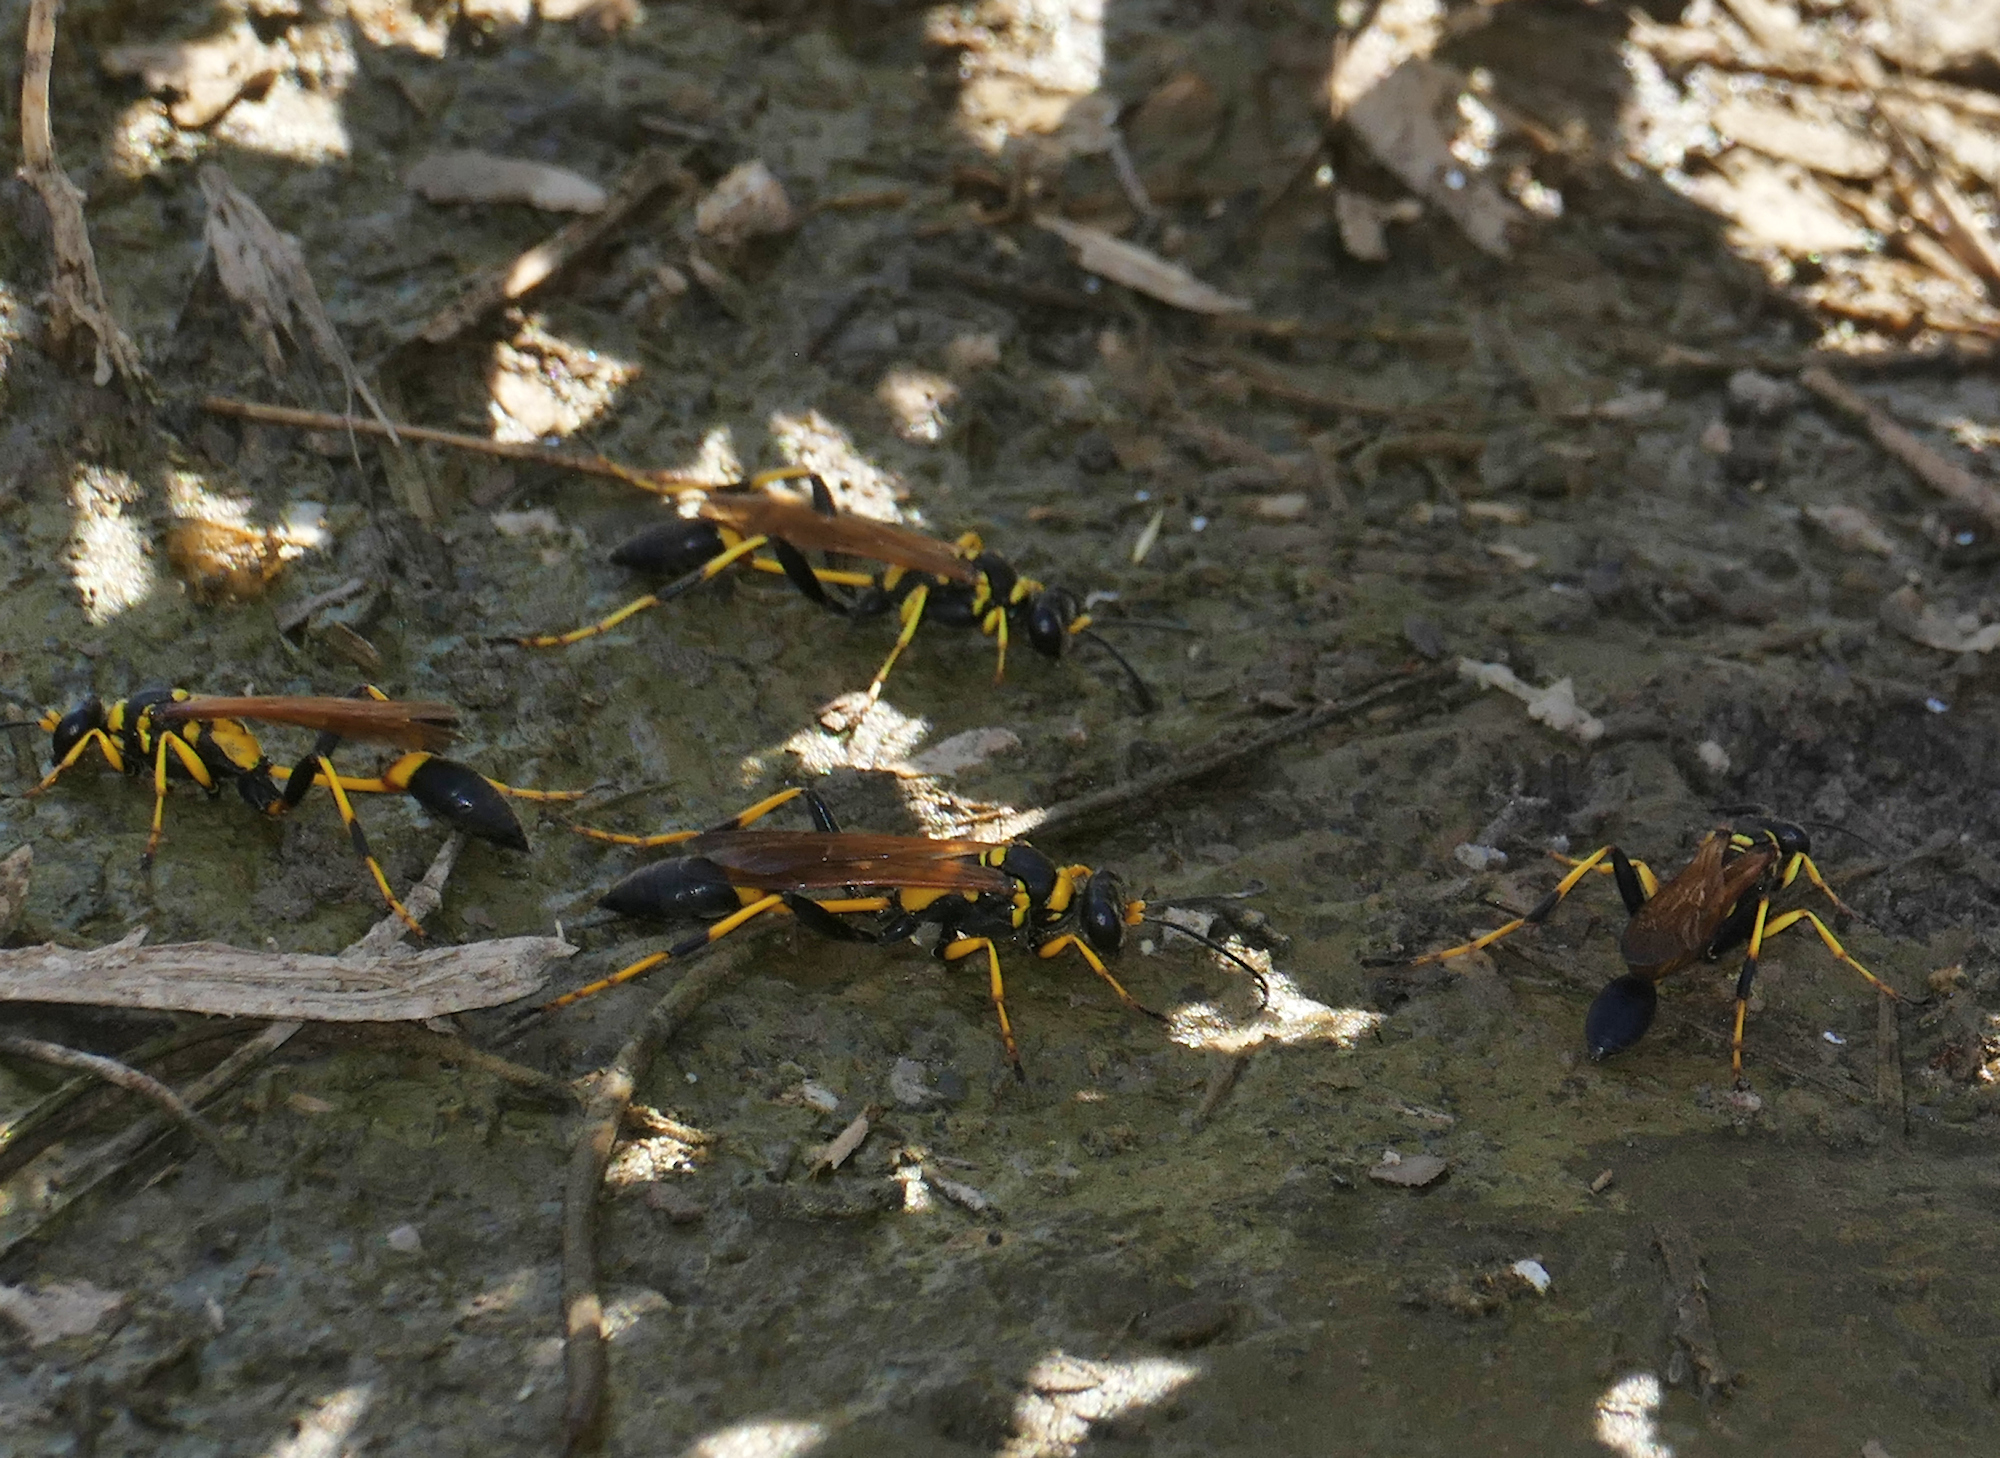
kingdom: Animalia
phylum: Arthropoda
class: Insecta
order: Hymenoptera
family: Sphecidae
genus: Sceliphron
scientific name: Sceliphron caementarium
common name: Mud dauber
